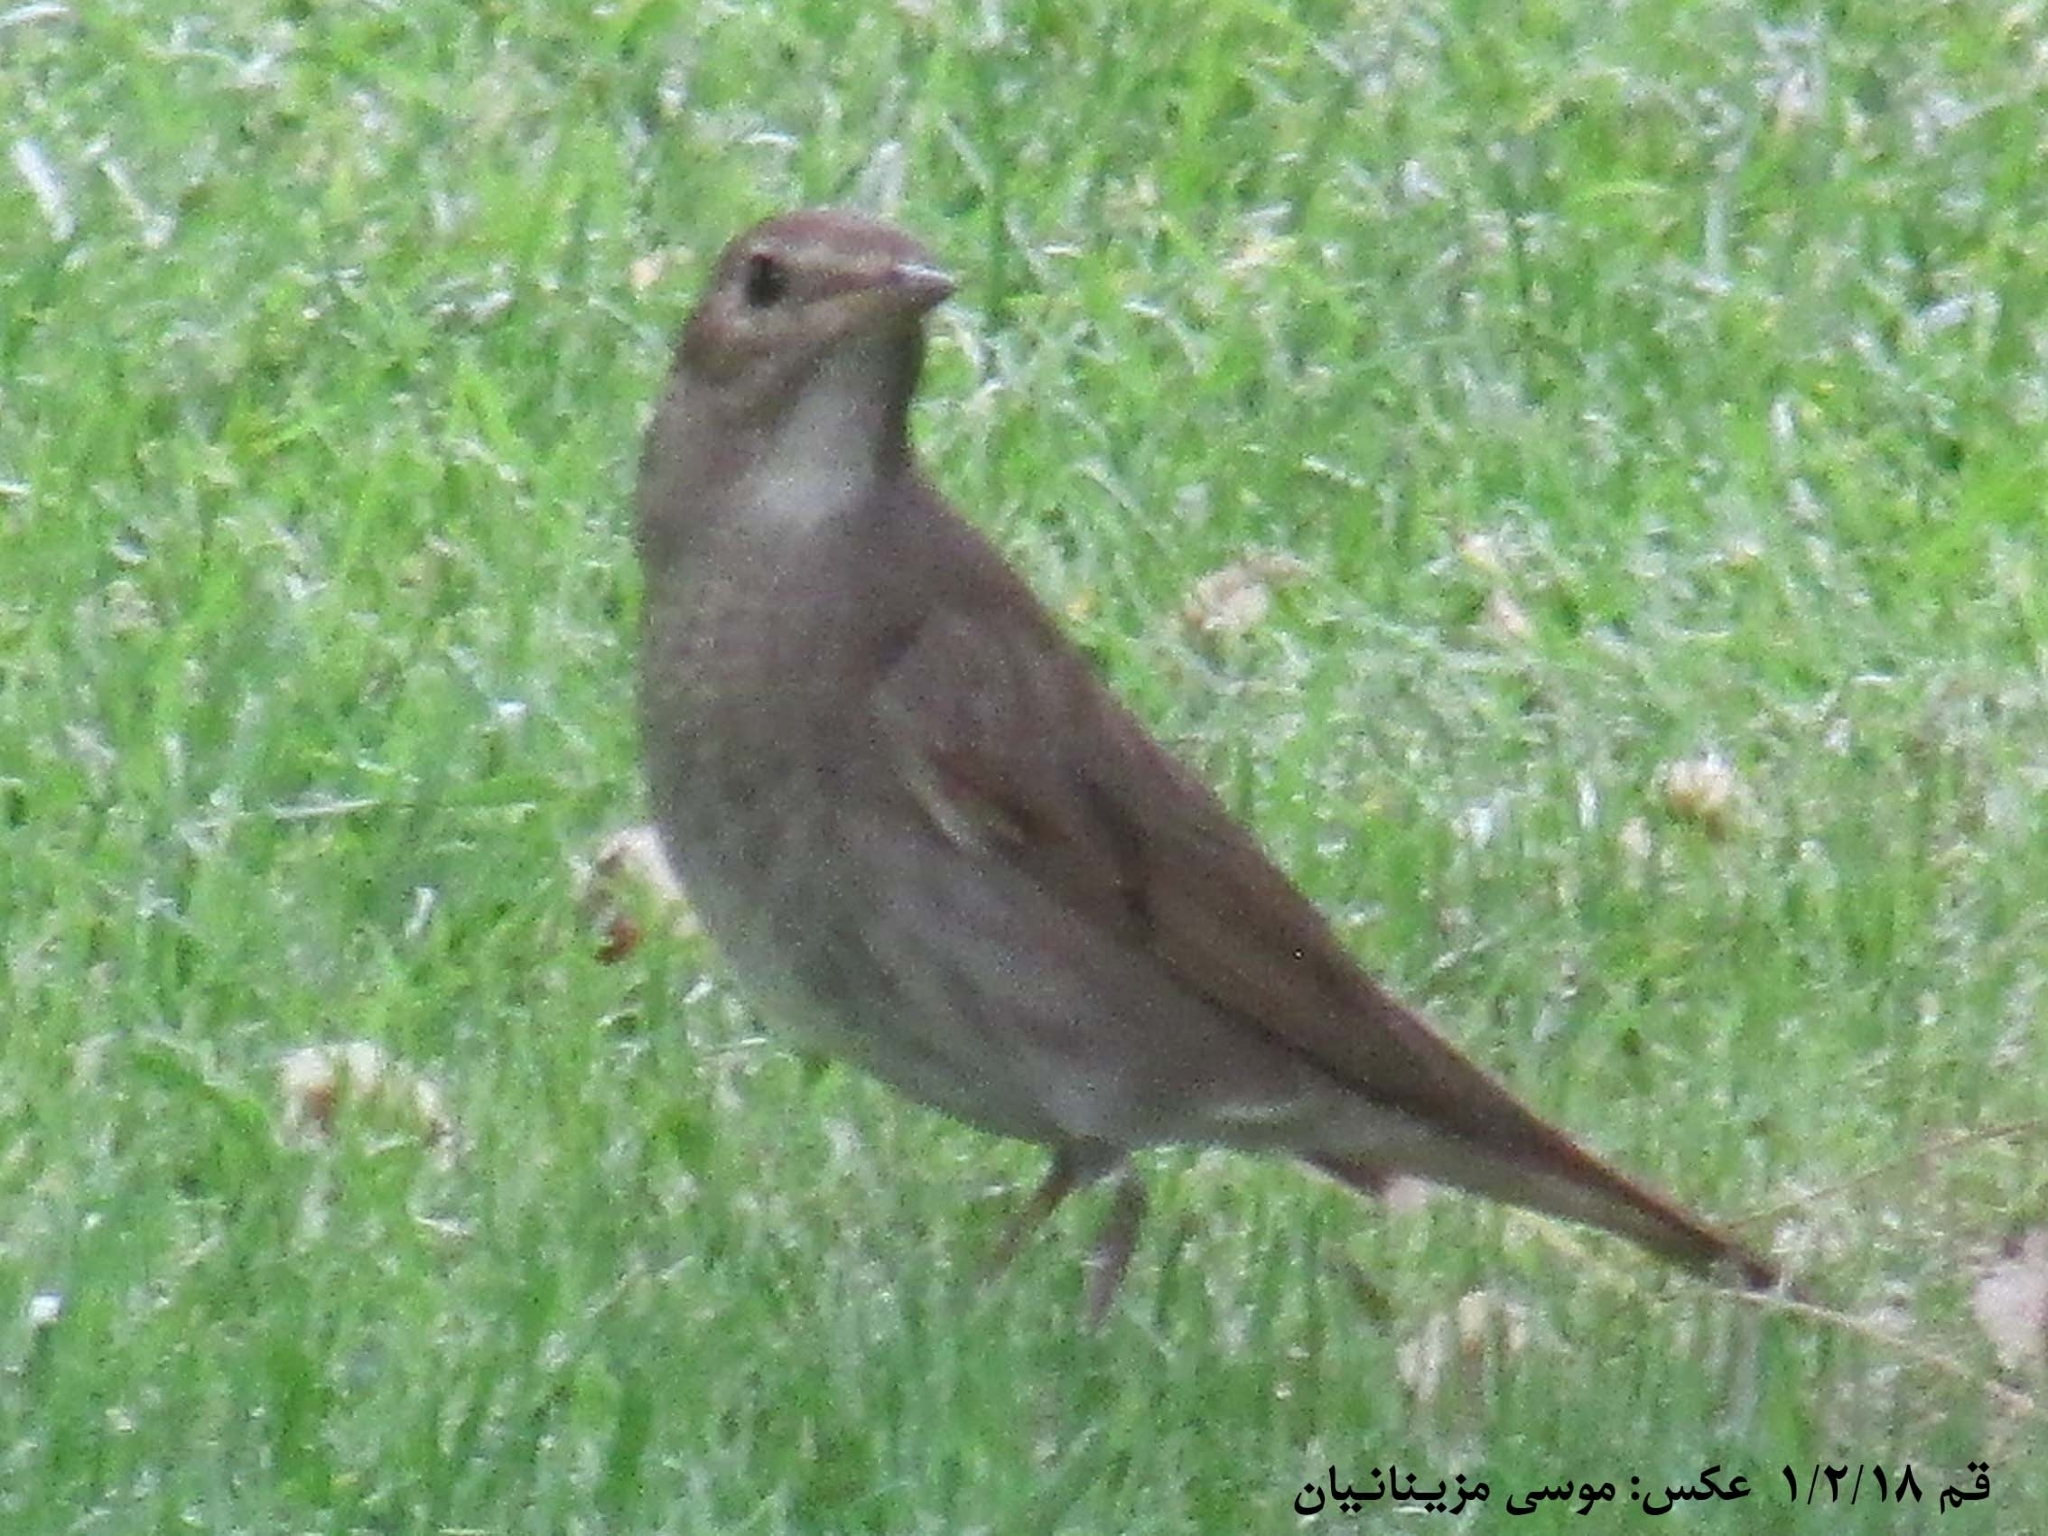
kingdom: Animalia
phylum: Chordata
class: Aves
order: Passeriformes
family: Muscicapidae
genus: Luscinia
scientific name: Luscinia luscinia
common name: Thrush nightingale
